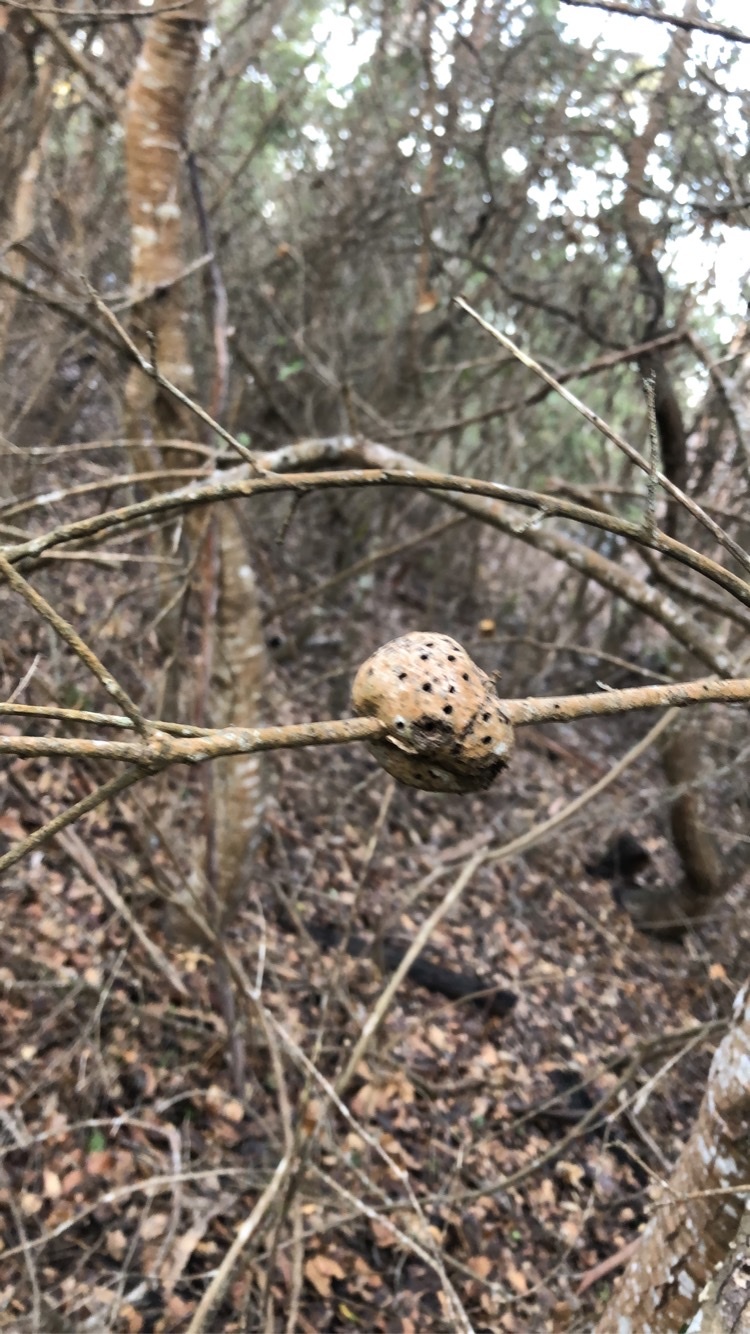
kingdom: Animalia
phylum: Arthropoda
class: Insecta
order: Hymenoptera
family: Cynipidae
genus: Callirhytis
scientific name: Callirhytis
